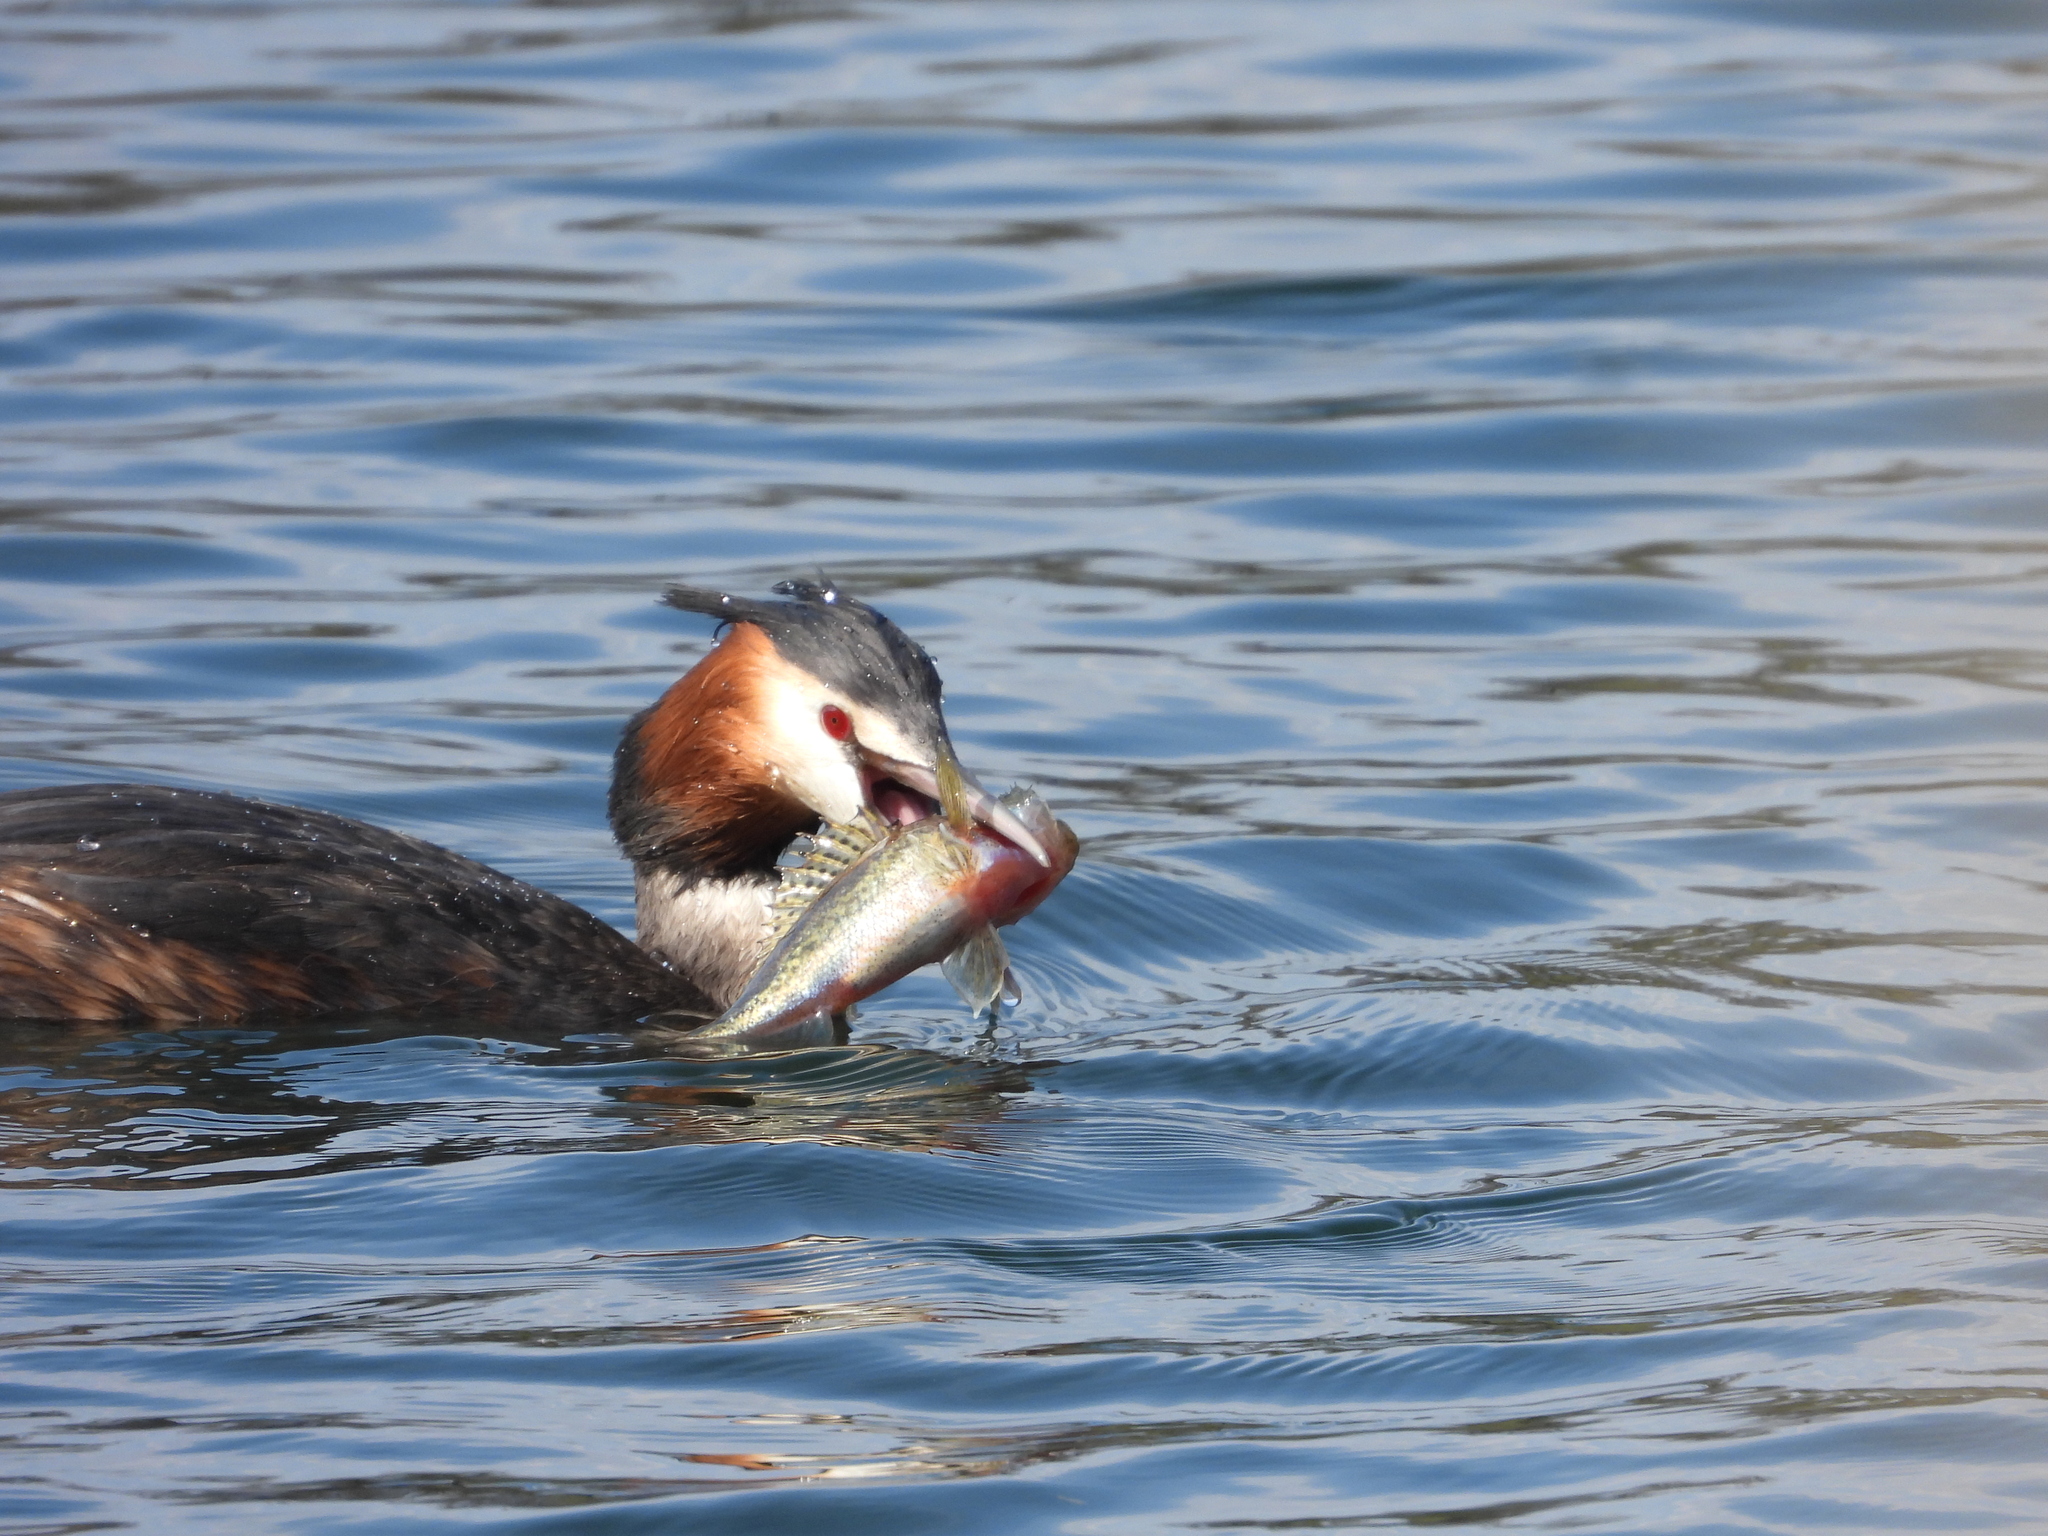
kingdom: Animalia
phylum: Chordata
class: Aves
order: Podicipediformes
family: Podicipedidae
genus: Podiceps
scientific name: Podiceps cristatus
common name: Great crested grebe
